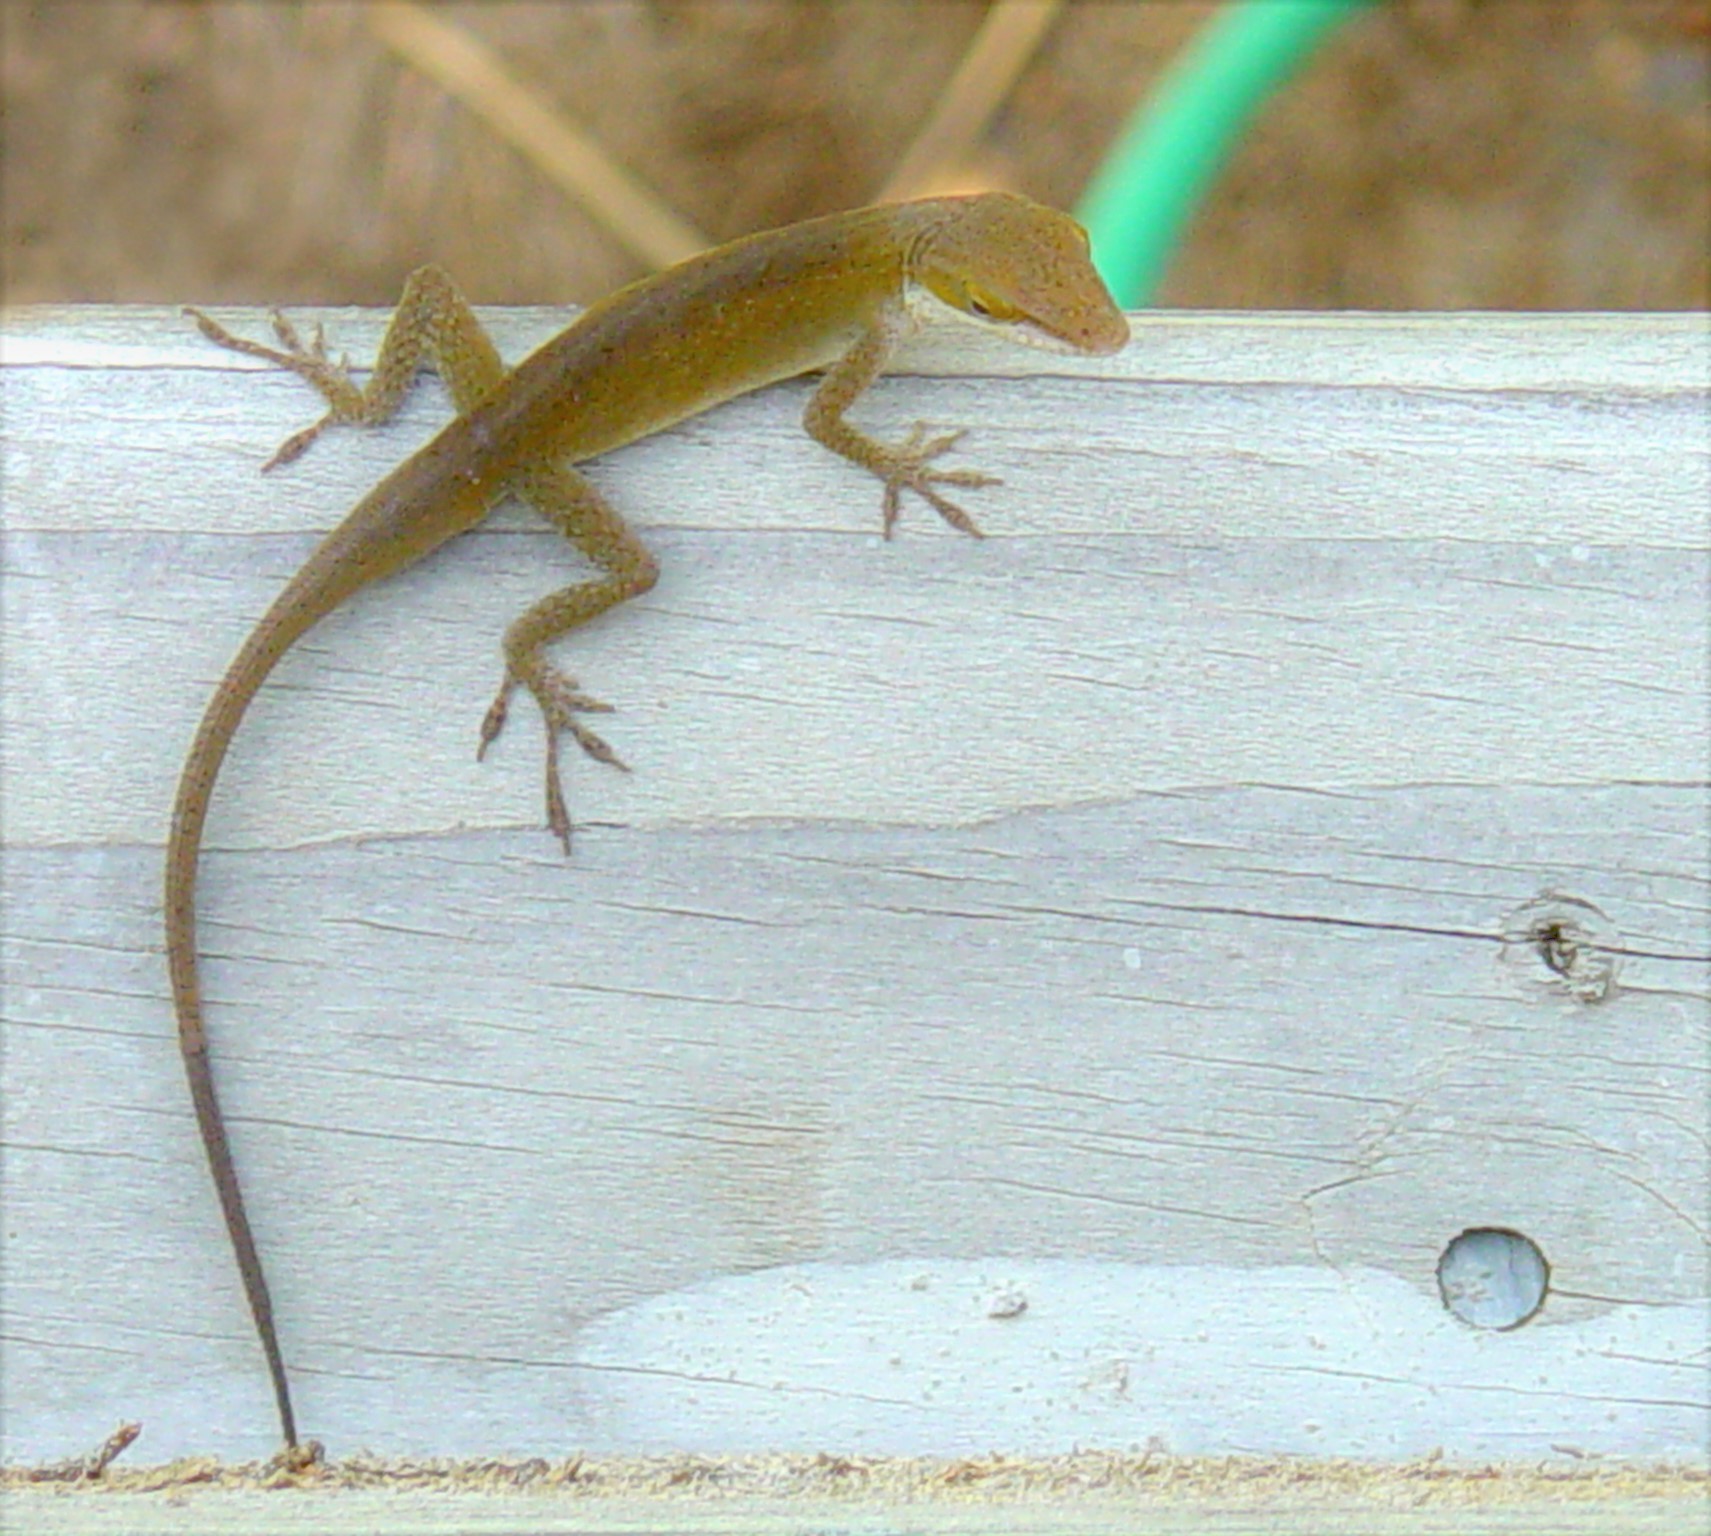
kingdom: Animalia
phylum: Chordata
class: Squamata
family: Dactyloidae
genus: Anolis
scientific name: Anolis carolinensis
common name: Green anole
